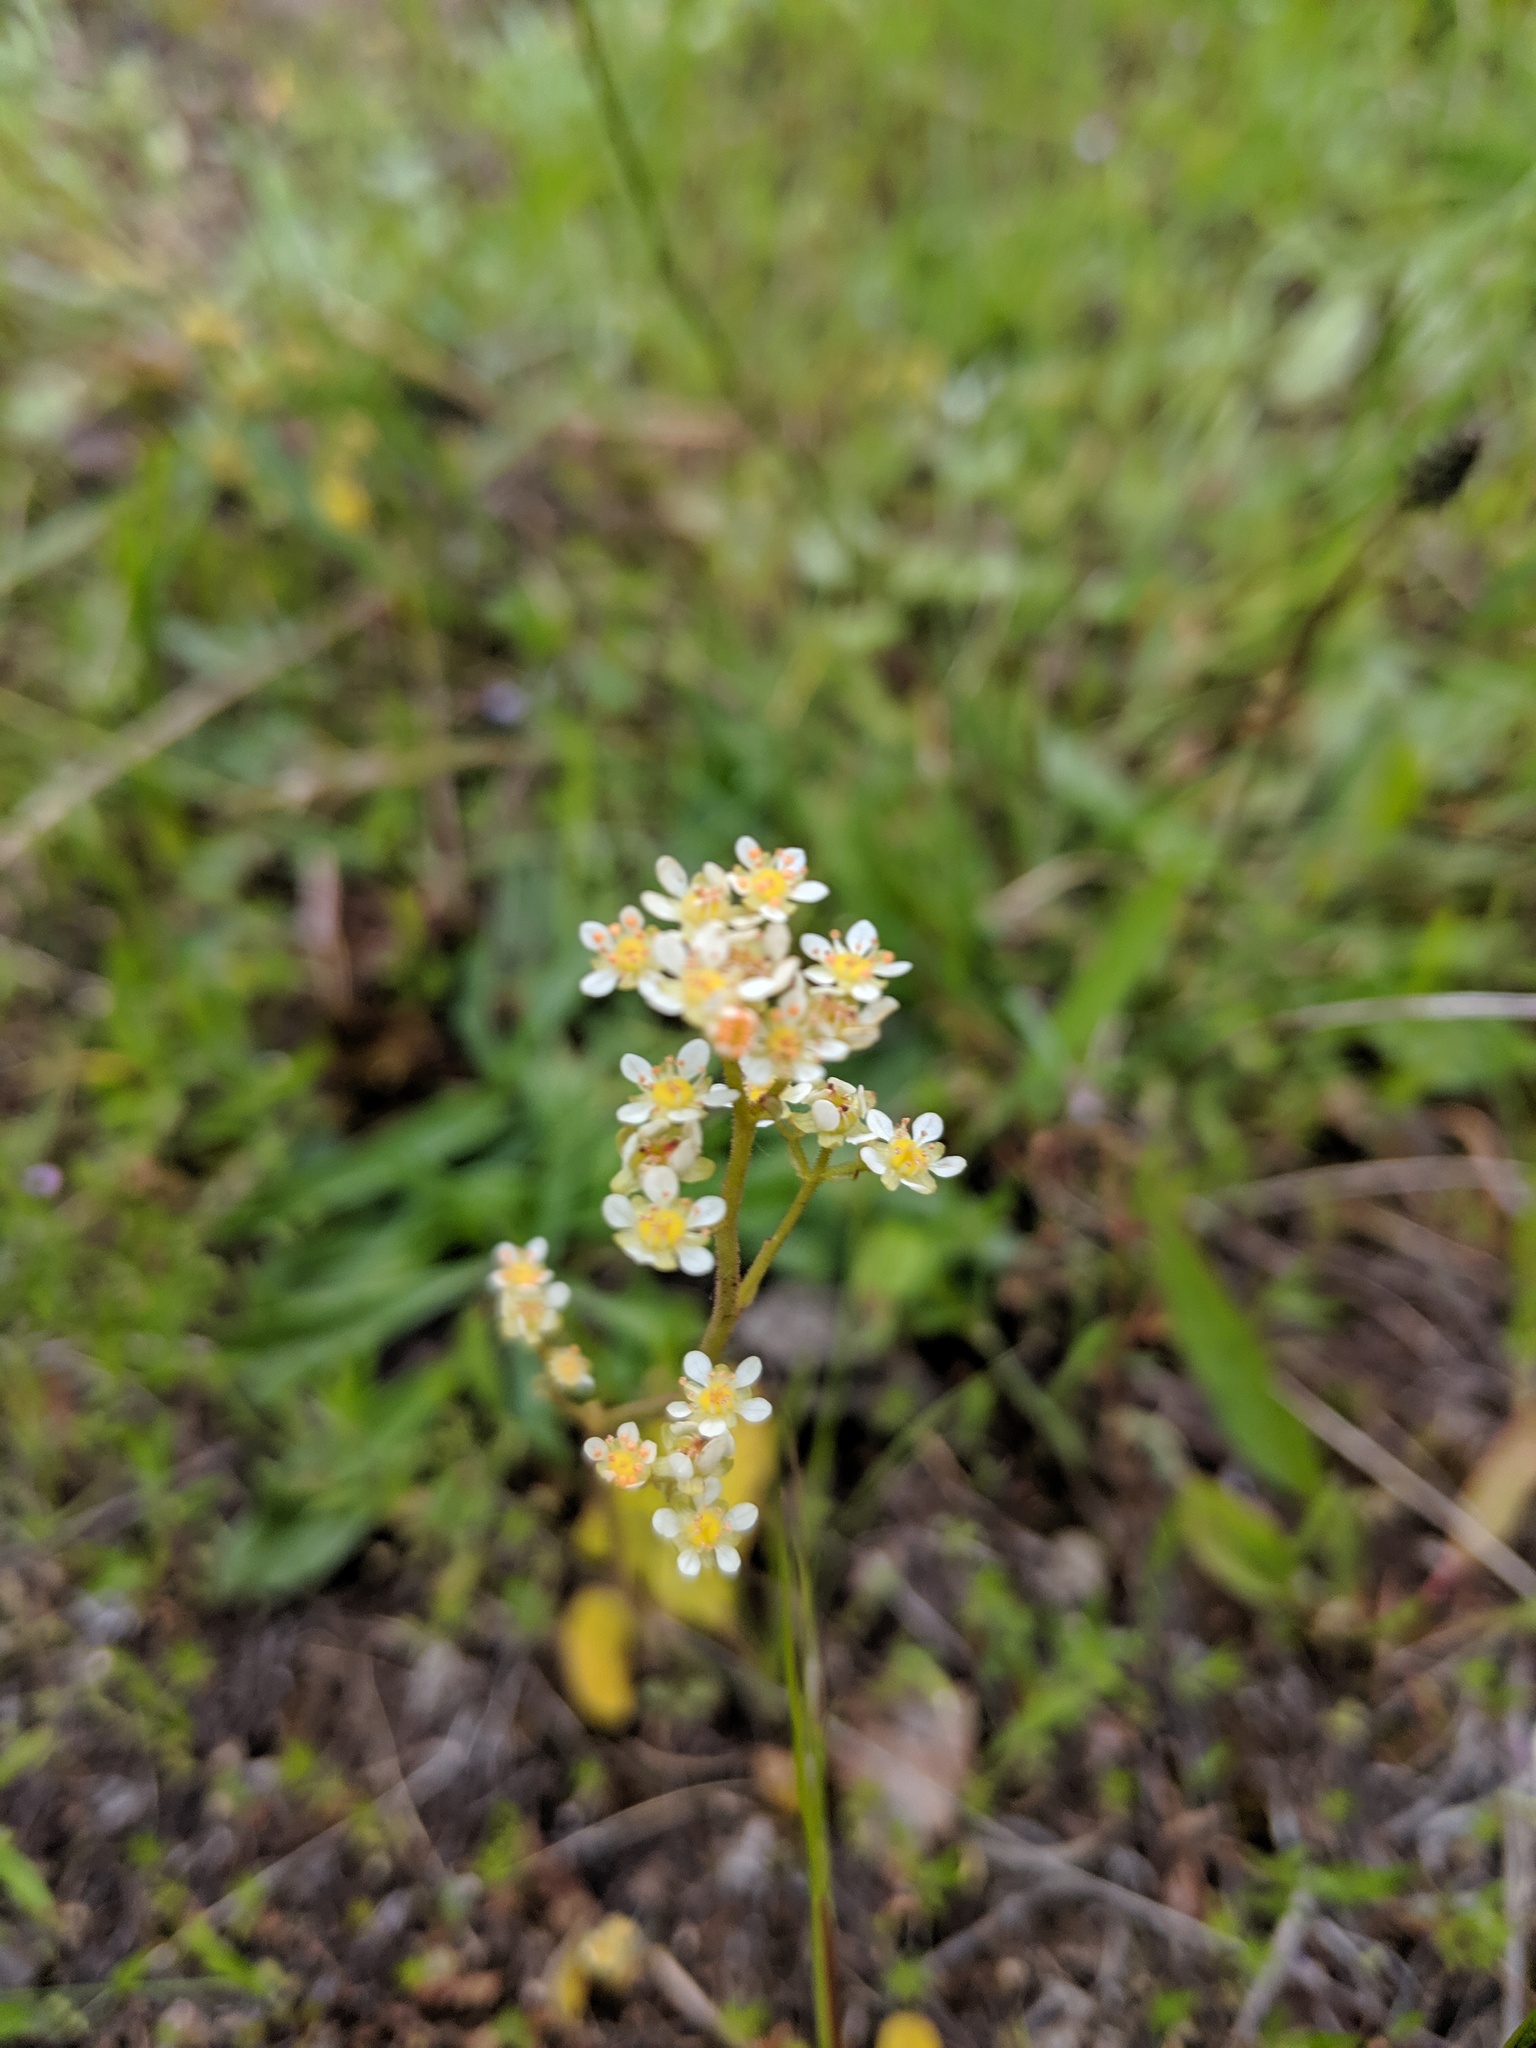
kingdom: Plantae
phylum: Tracheophyta
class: Magnoliopsida
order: Saxifragales
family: Saxifragaceae
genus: Micranthes
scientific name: Micranthes fragosa
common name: Peak saxifrage
